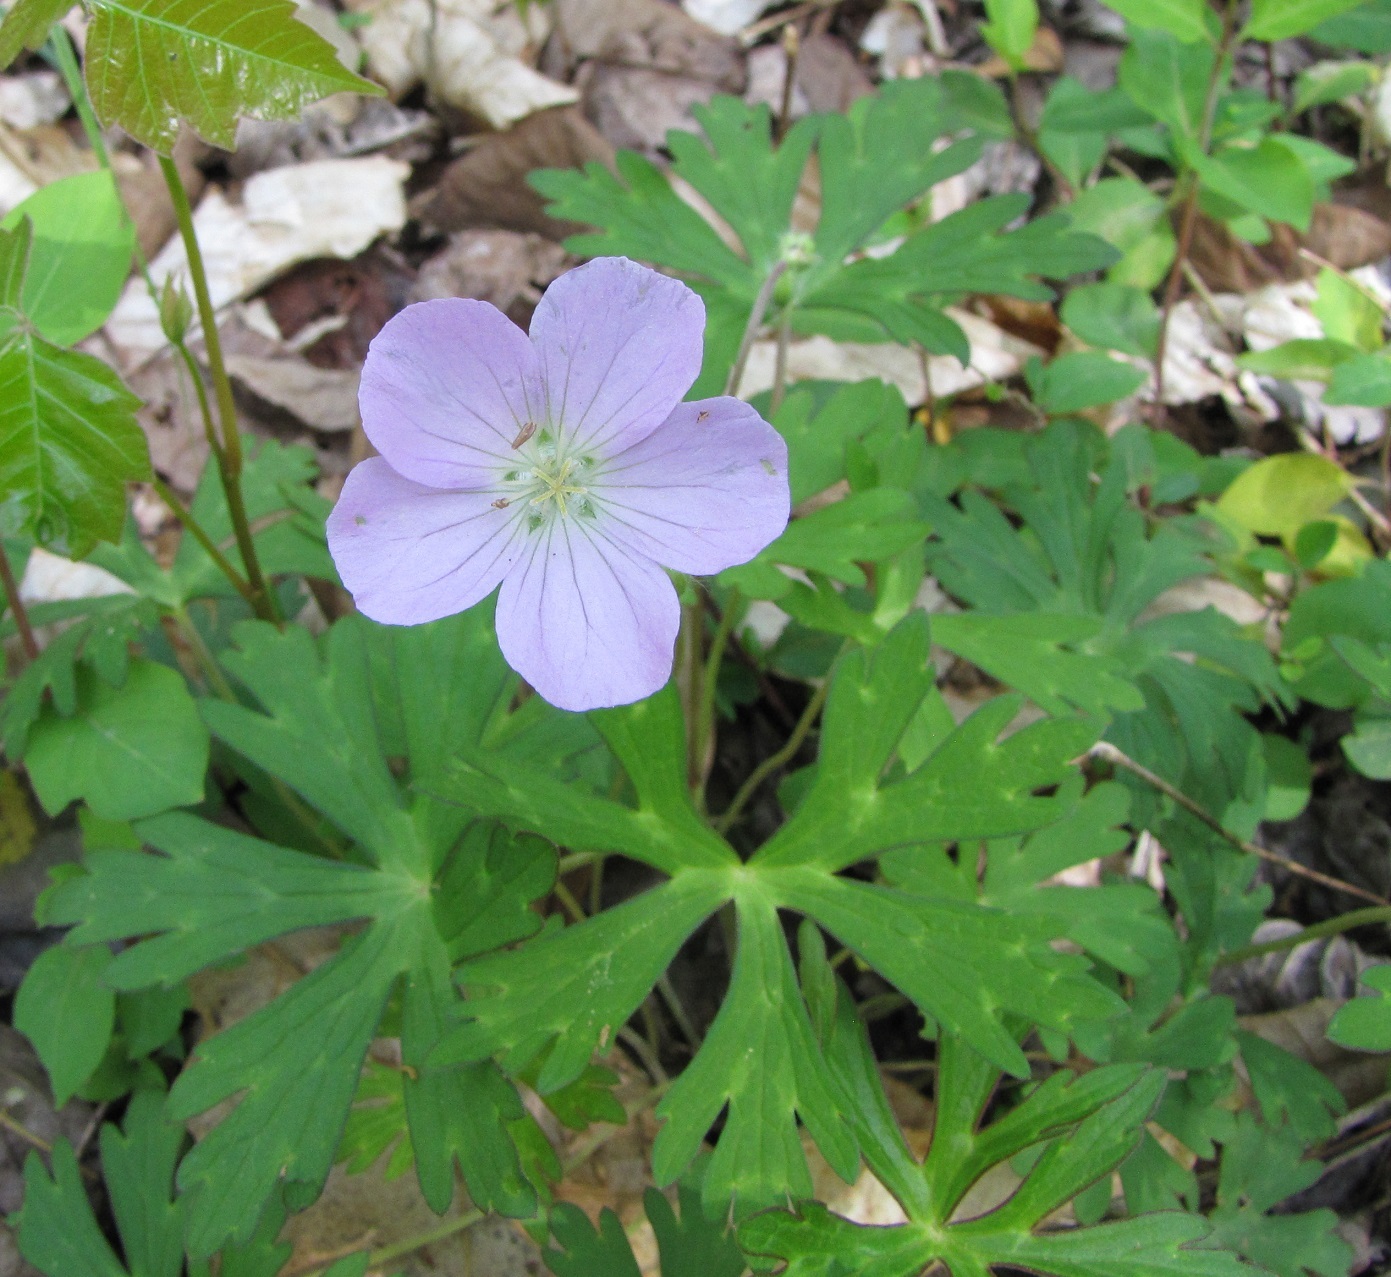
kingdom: Plantae
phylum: Tracheophyta
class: Magnoliopsida
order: Geraniales
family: Geraniaceae
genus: Geranium
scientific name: Geranium maculatum
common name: Spotted geranium
